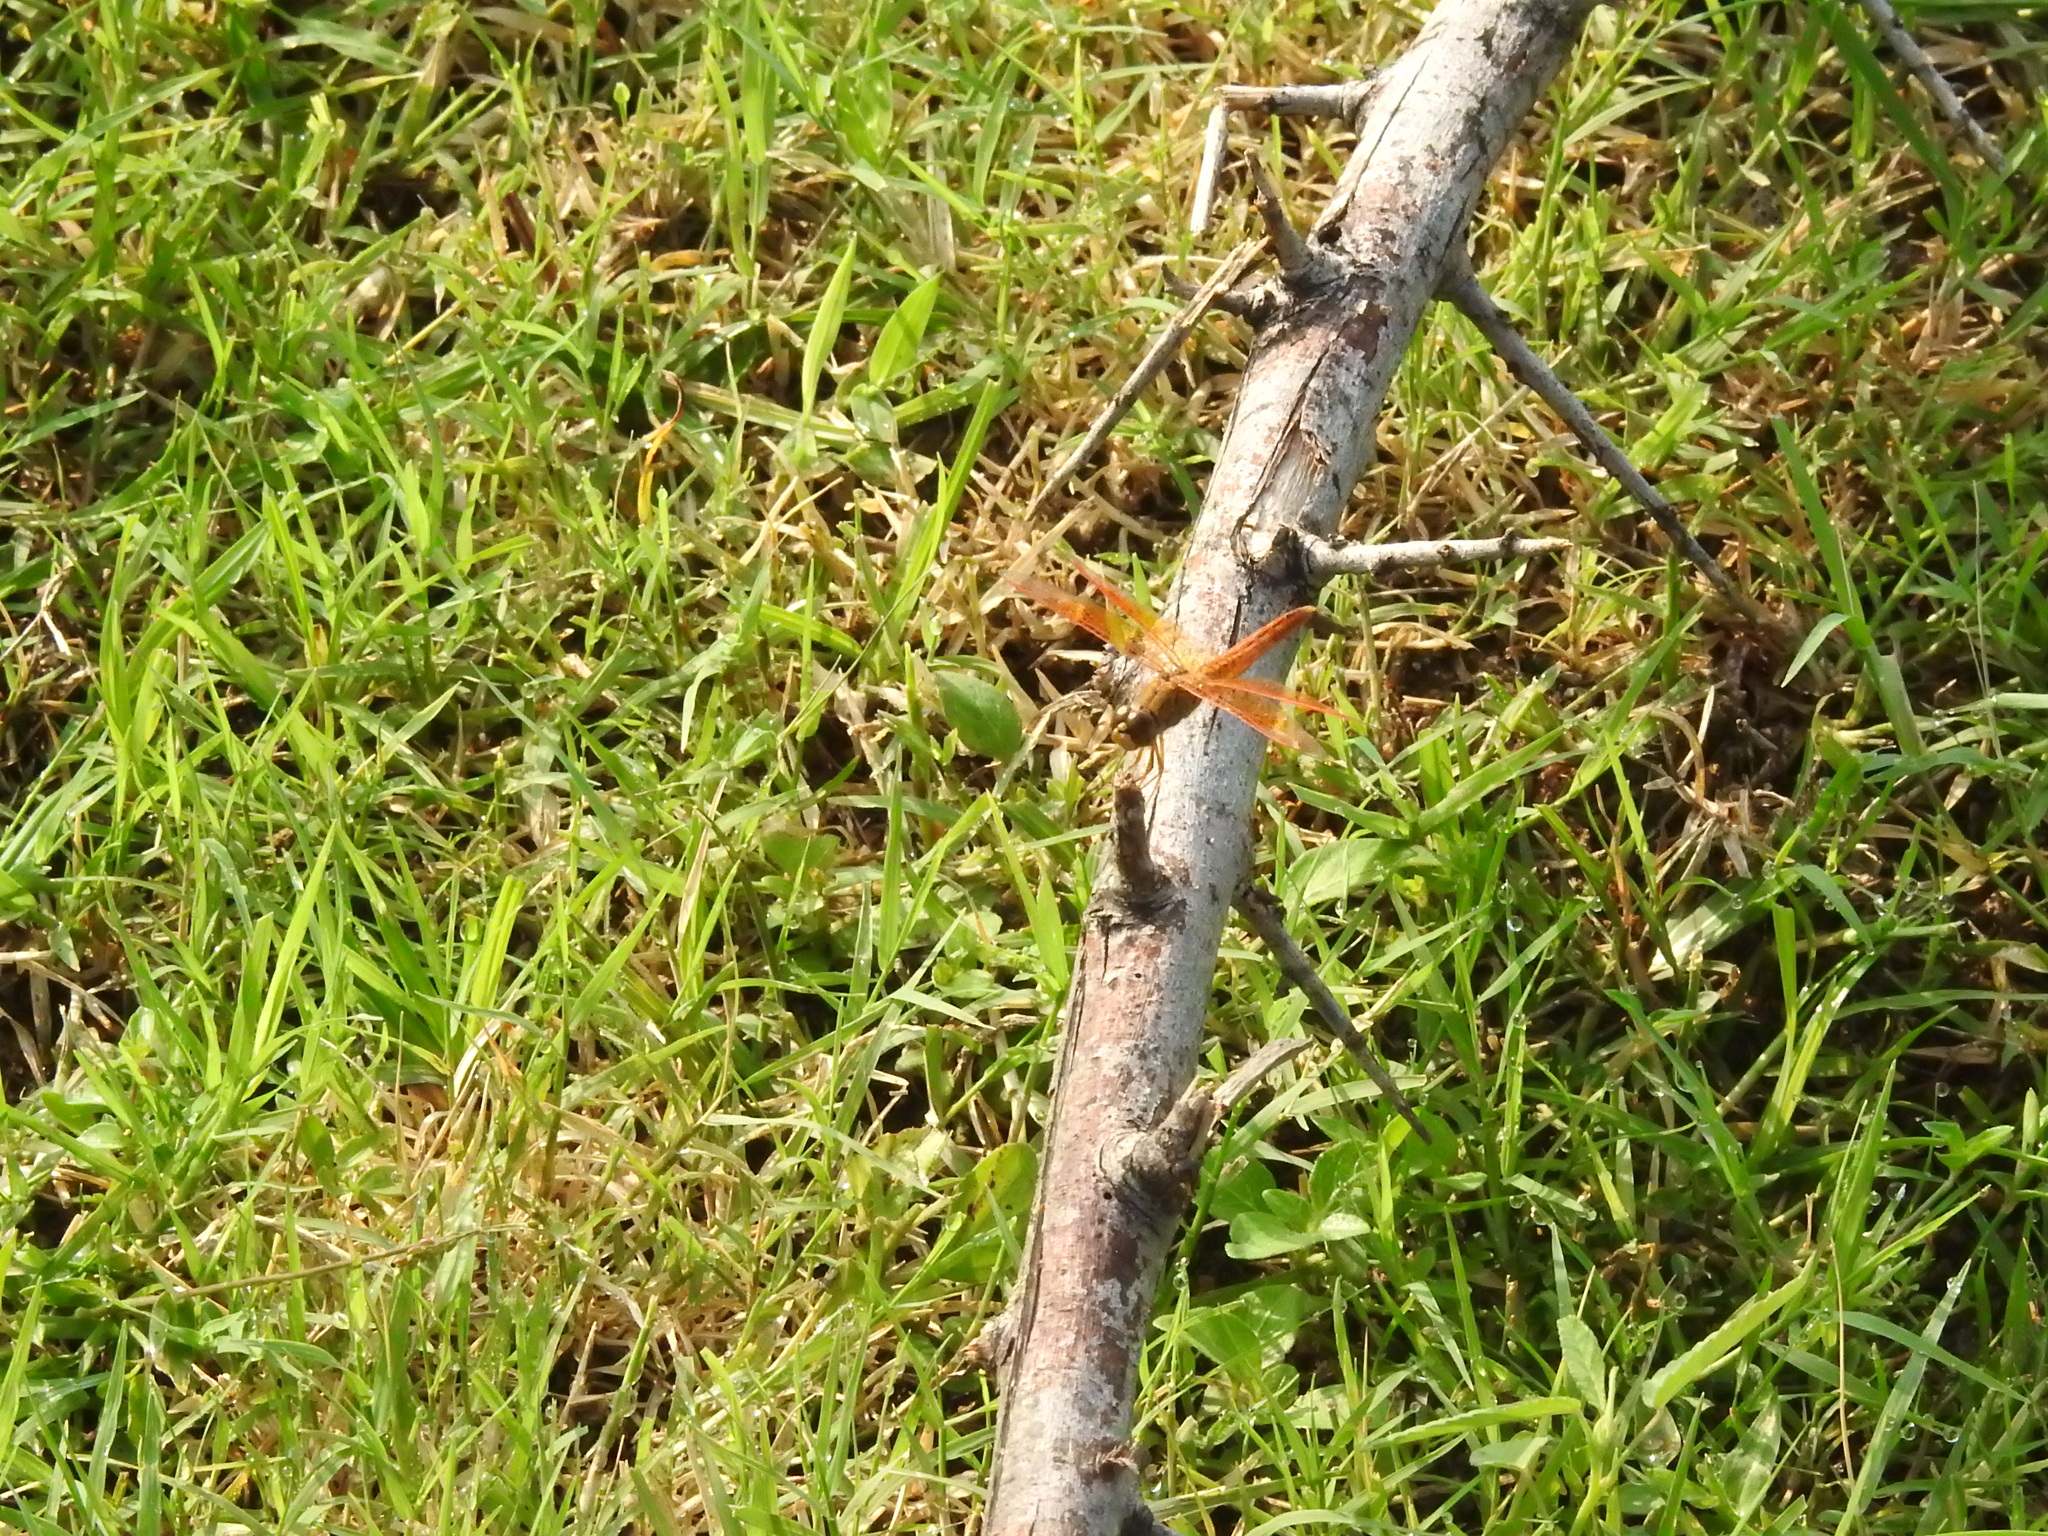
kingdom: Animalia
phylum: Arthropoda
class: Insecta
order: Odonata
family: Libellulidae
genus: Brachythemis
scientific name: Brachythemis contaminata
